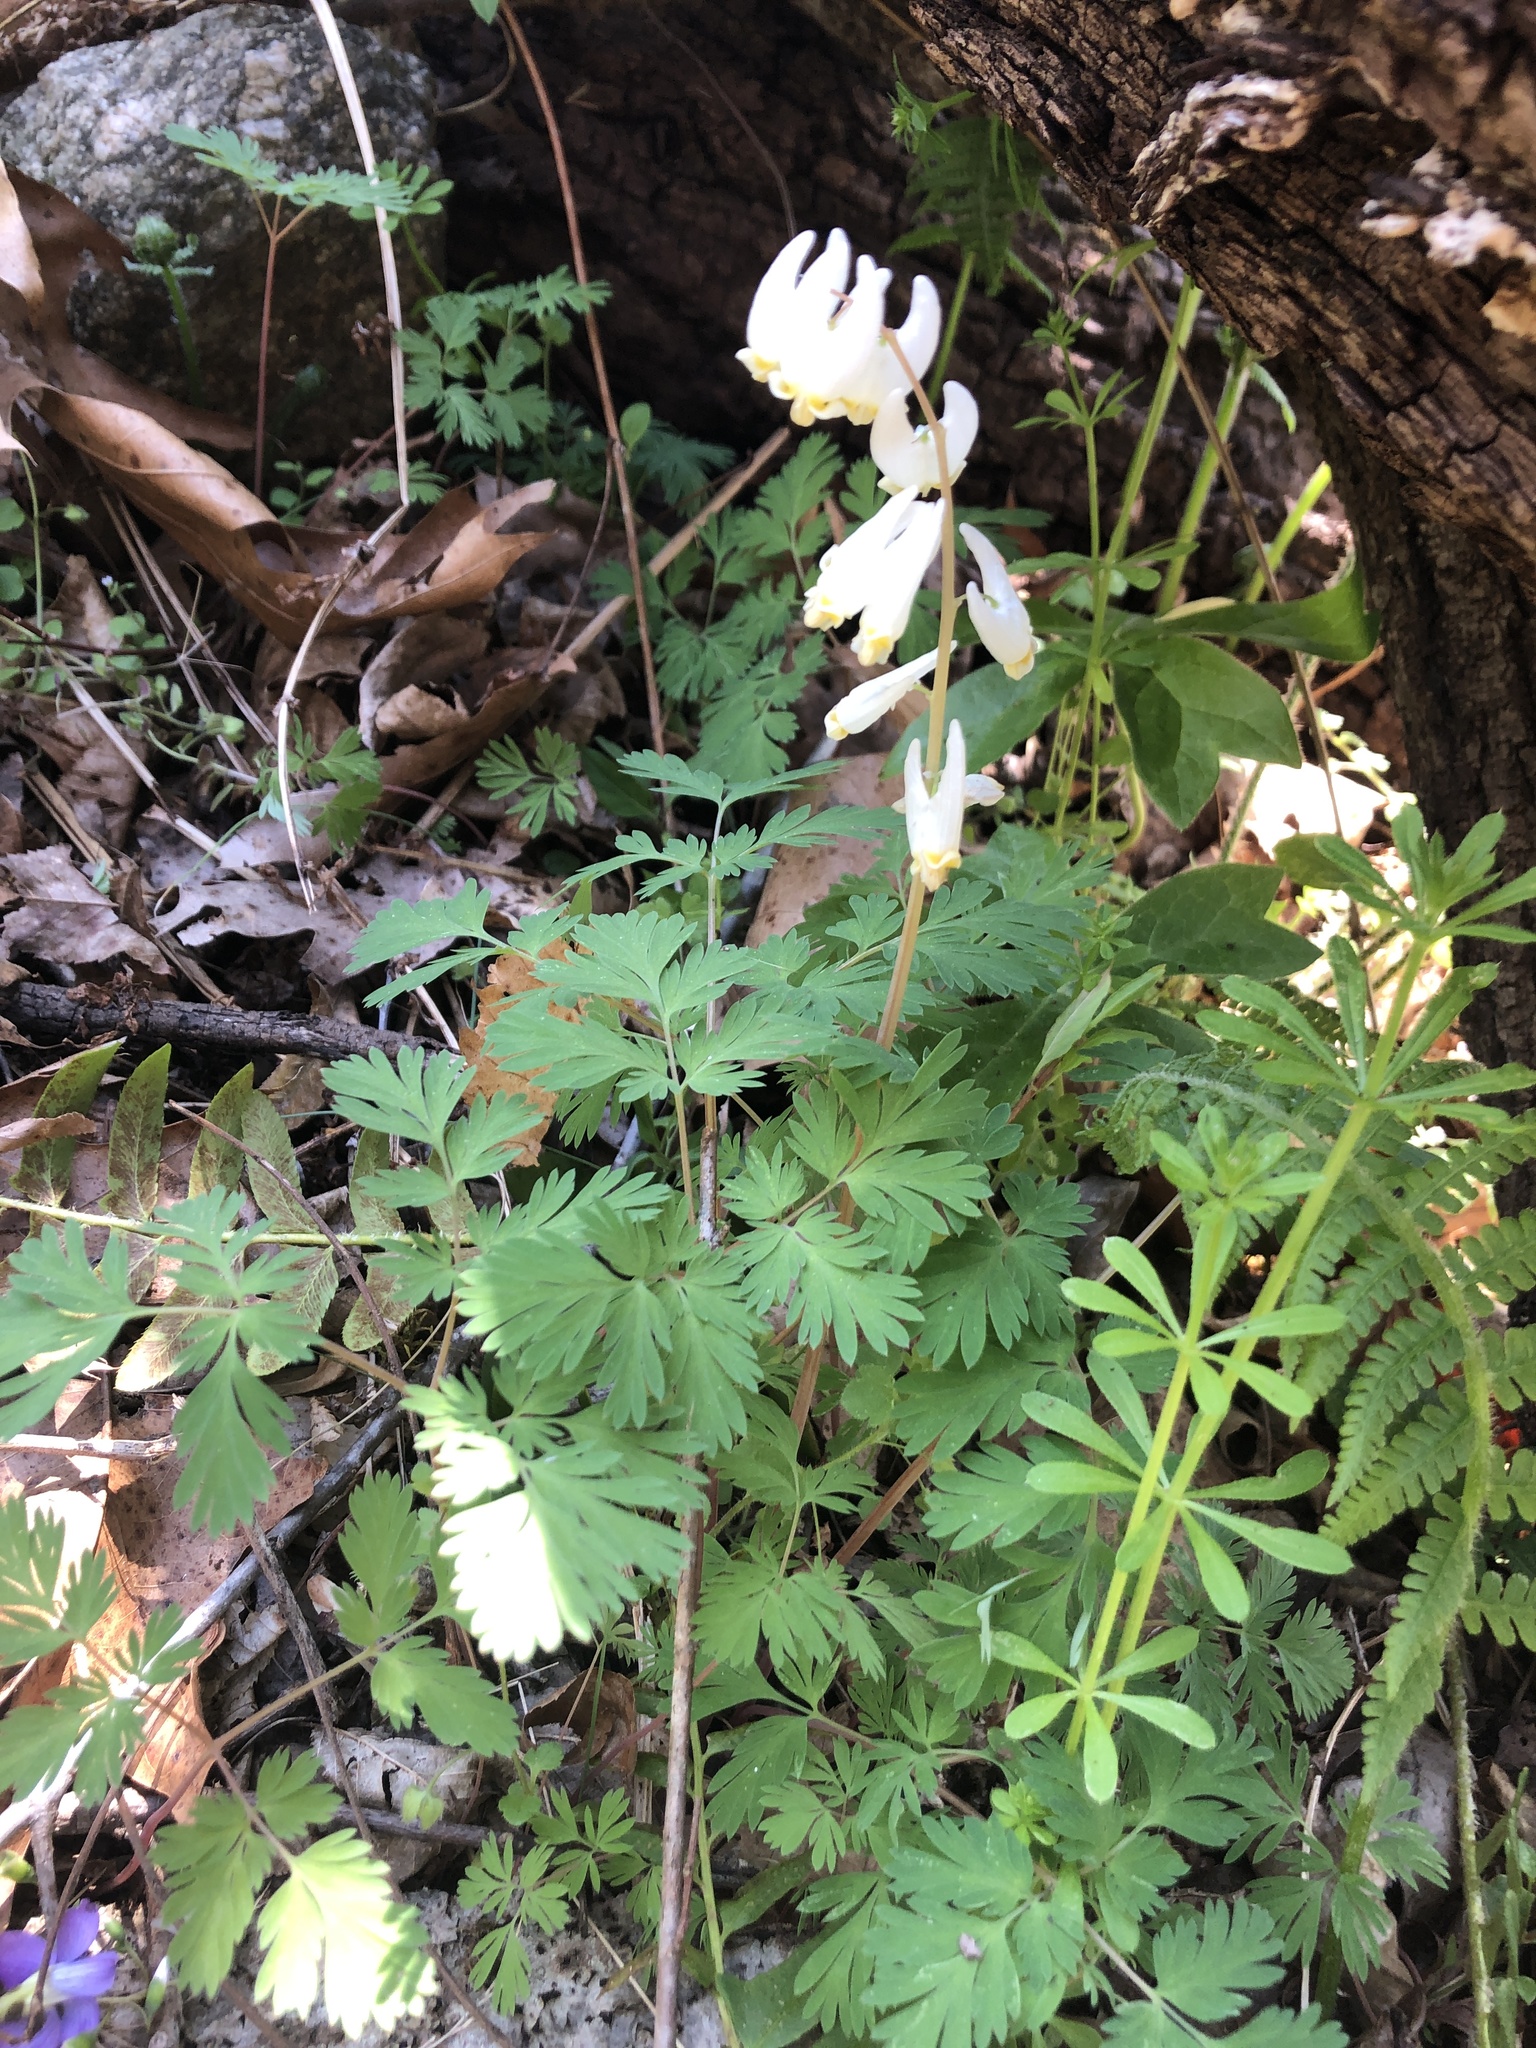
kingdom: Plantae
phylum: Tracheophyta
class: Magnoliopsida
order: Ranunculales
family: Papaveraceae
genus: Dicentra
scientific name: Dicentra cucullaria
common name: Dutchman's breeches
